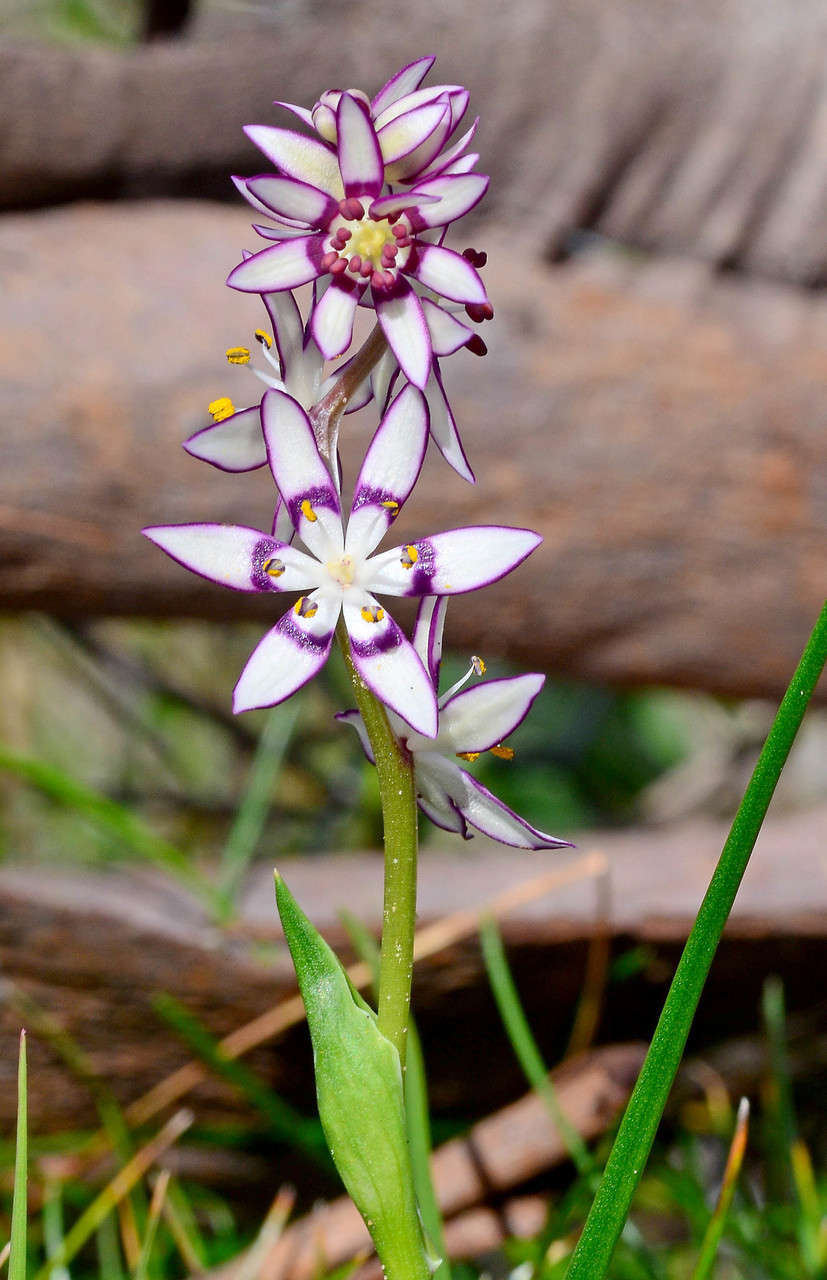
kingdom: Plantae
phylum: Tracheophyta
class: Liliopsida
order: Liliales
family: Colchicaceae
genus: Wurmbea
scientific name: Wurmbea dioica
